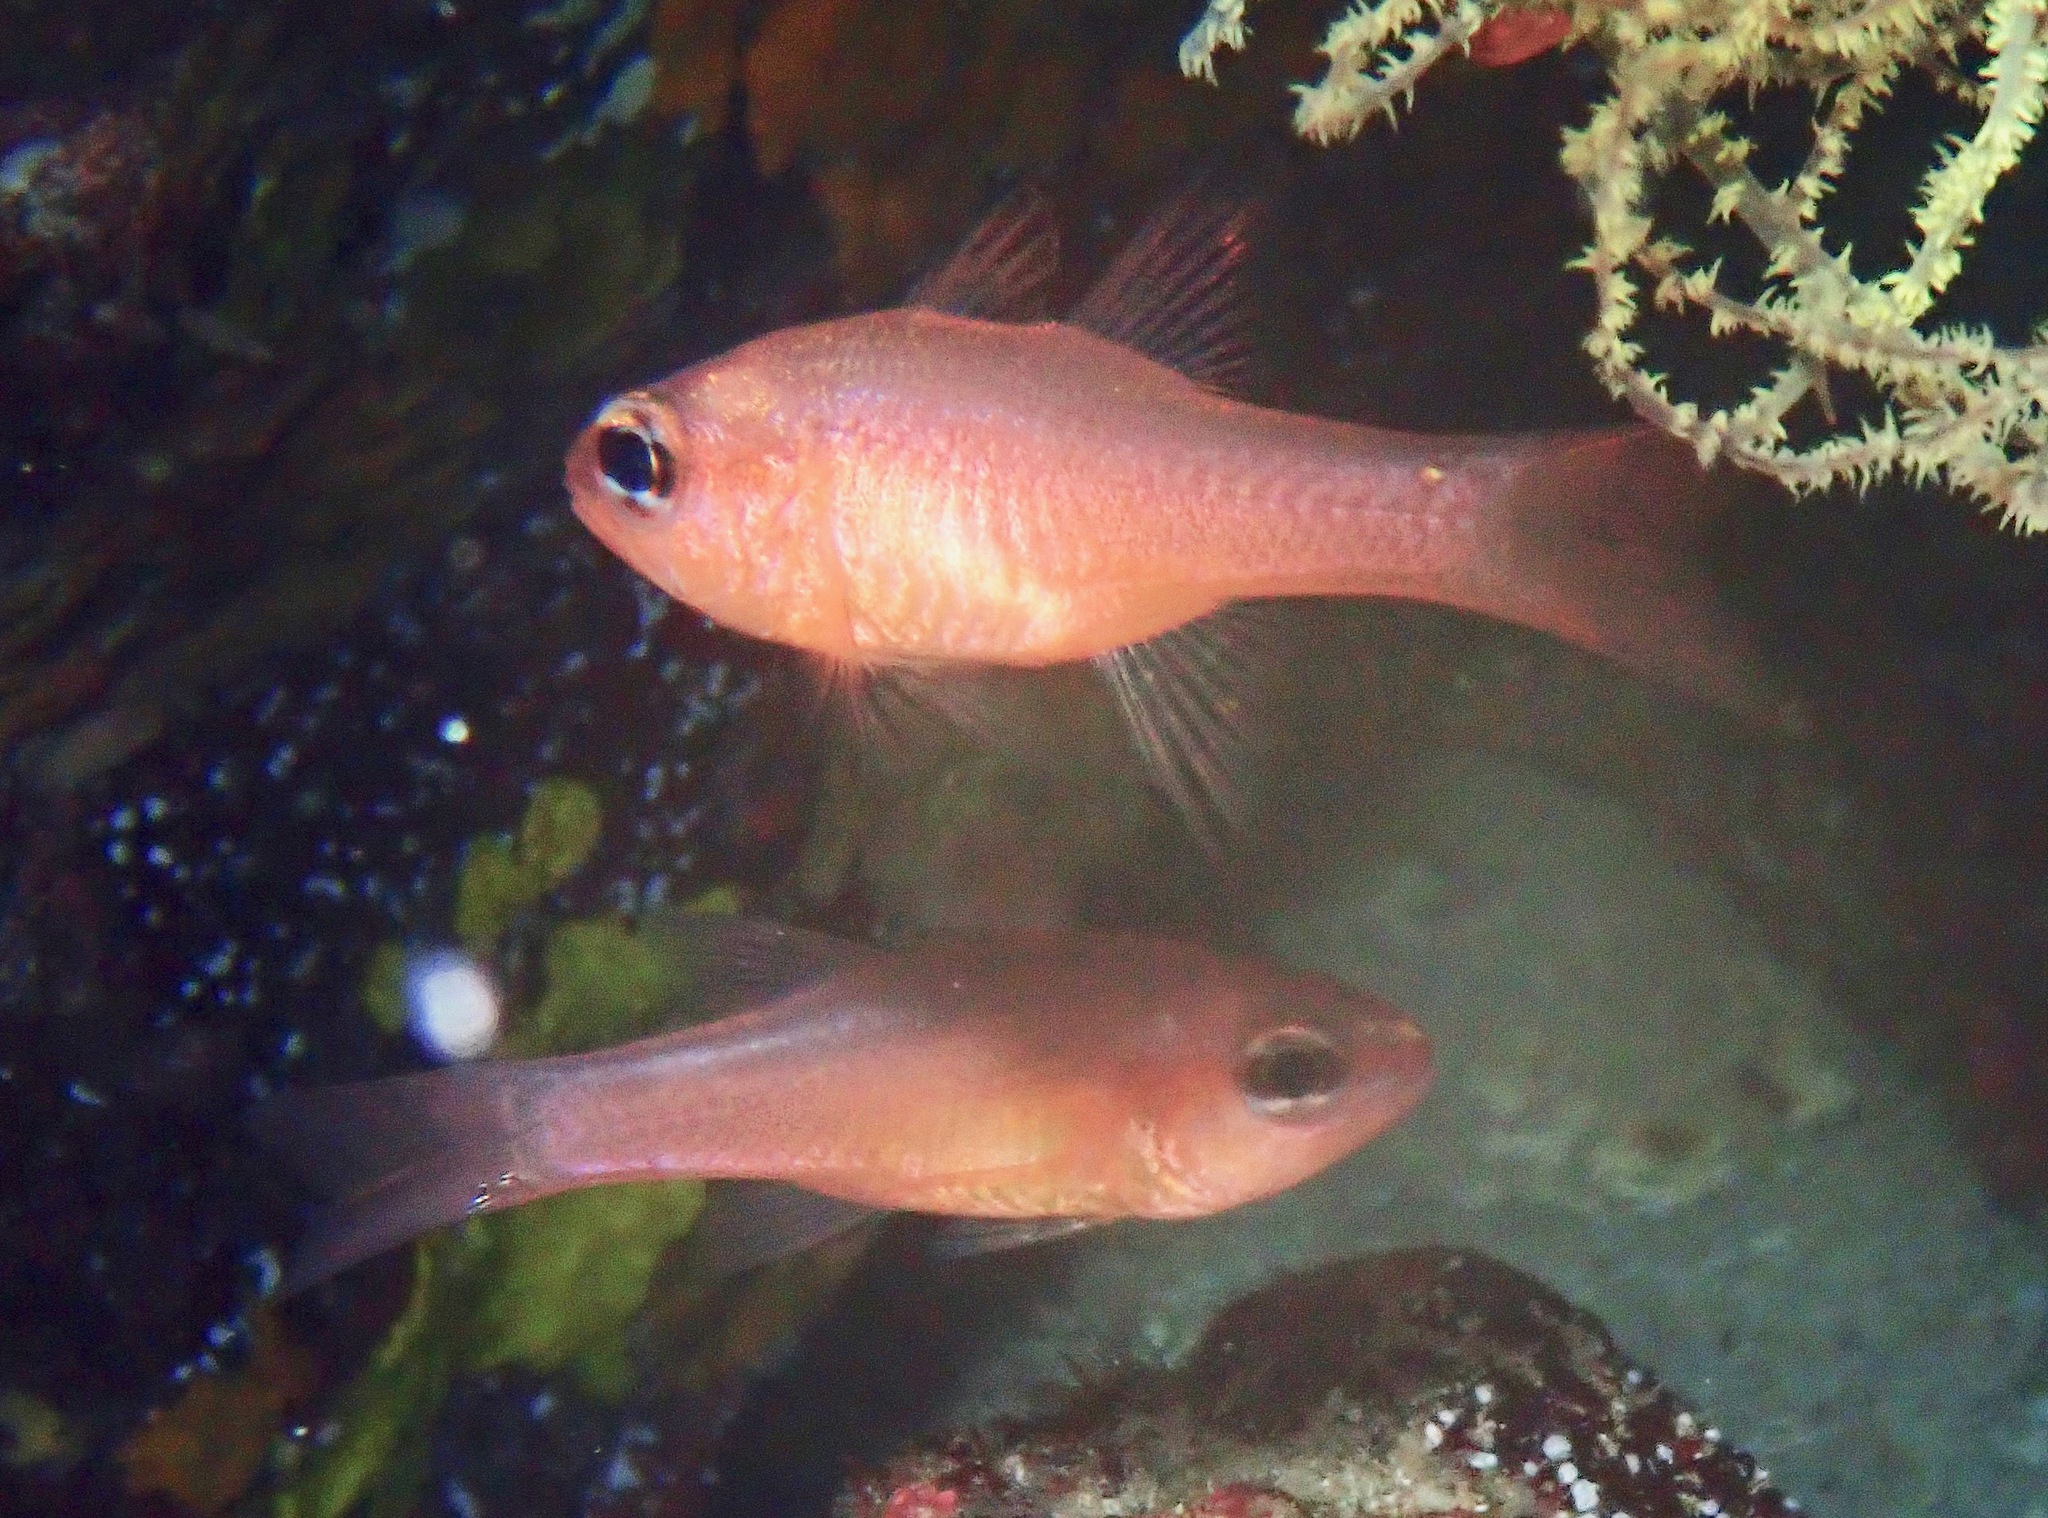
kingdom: Animalia
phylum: Chordata
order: Perciformes
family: Apogonidae
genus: Apogon
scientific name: Apogon atradorsatus
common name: Blacktip cardinalfish
